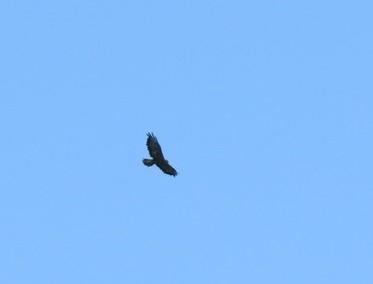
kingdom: Animalia
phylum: Chordata
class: Aves
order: Accipitriformes
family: Accipitridae
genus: Buteo
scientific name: Buteo buteo
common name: Common buzzard
